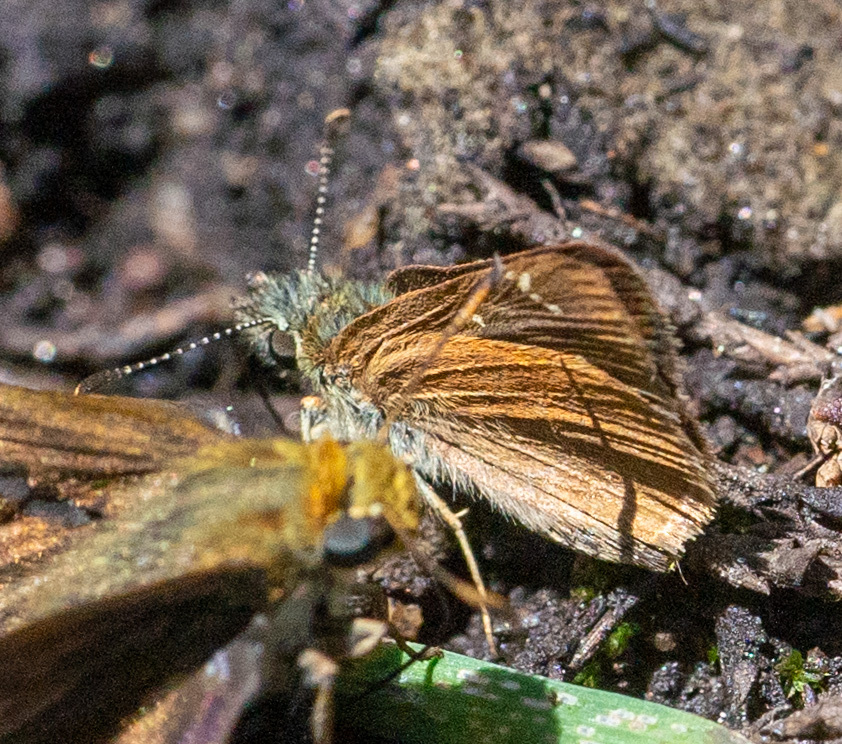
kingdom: Animalia
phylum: Arthropoda
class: Insecta
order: Lepidoptera
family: Hesperiidae
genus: Piruna
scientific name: Piruna pirus
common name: Russet skipperling
